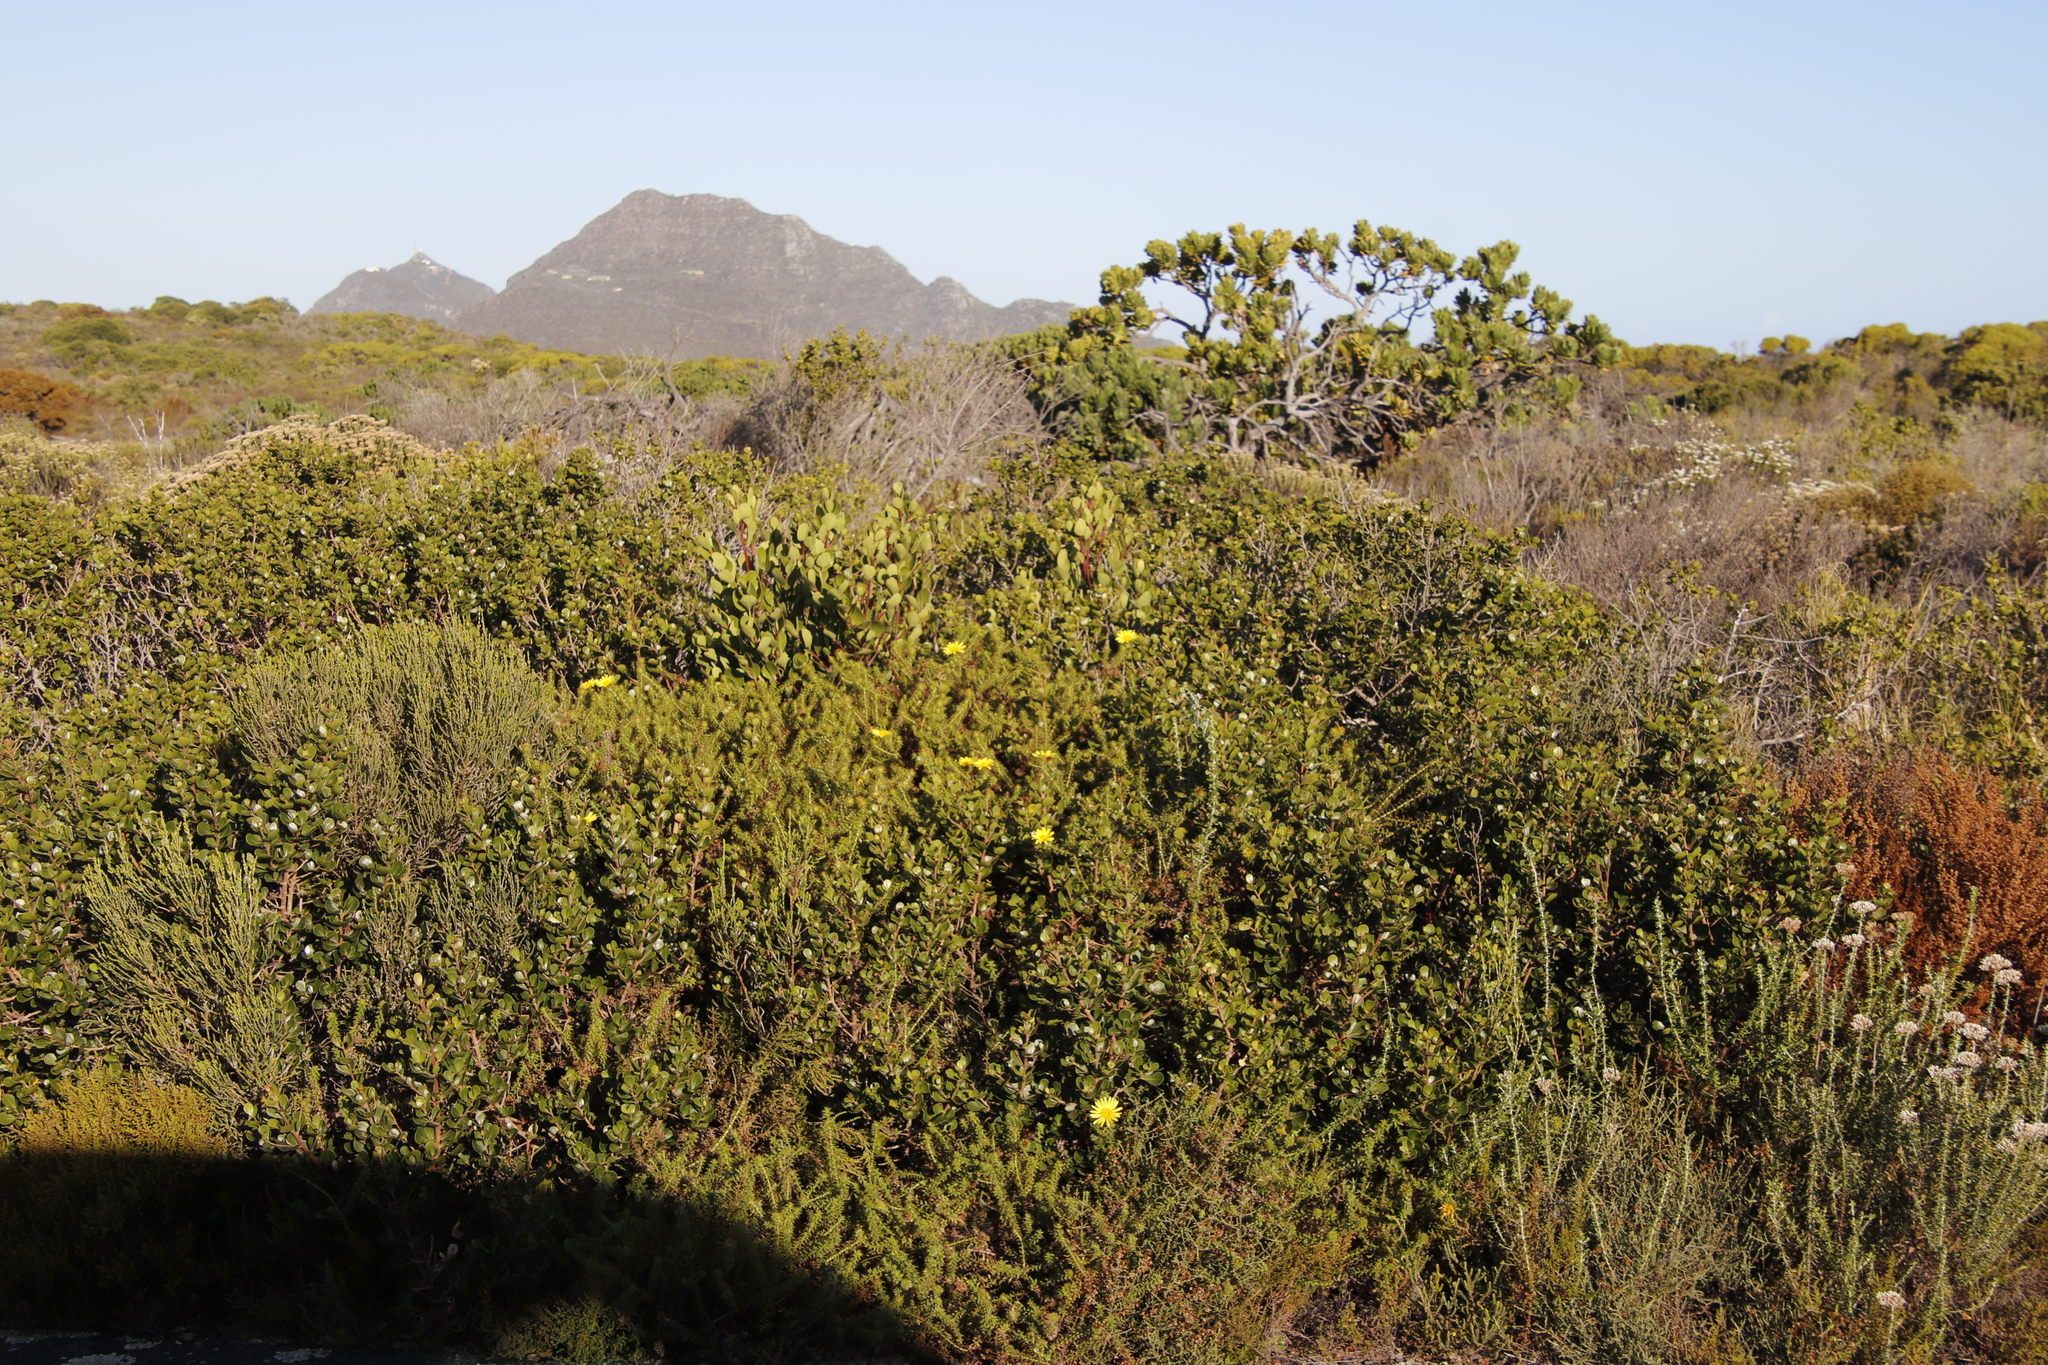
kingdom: Plantae
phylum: Tracheophyta
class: Magnoliopsida
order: Asterales
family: Asteraceae
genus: Cullumia
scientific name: Cullumia setosa
